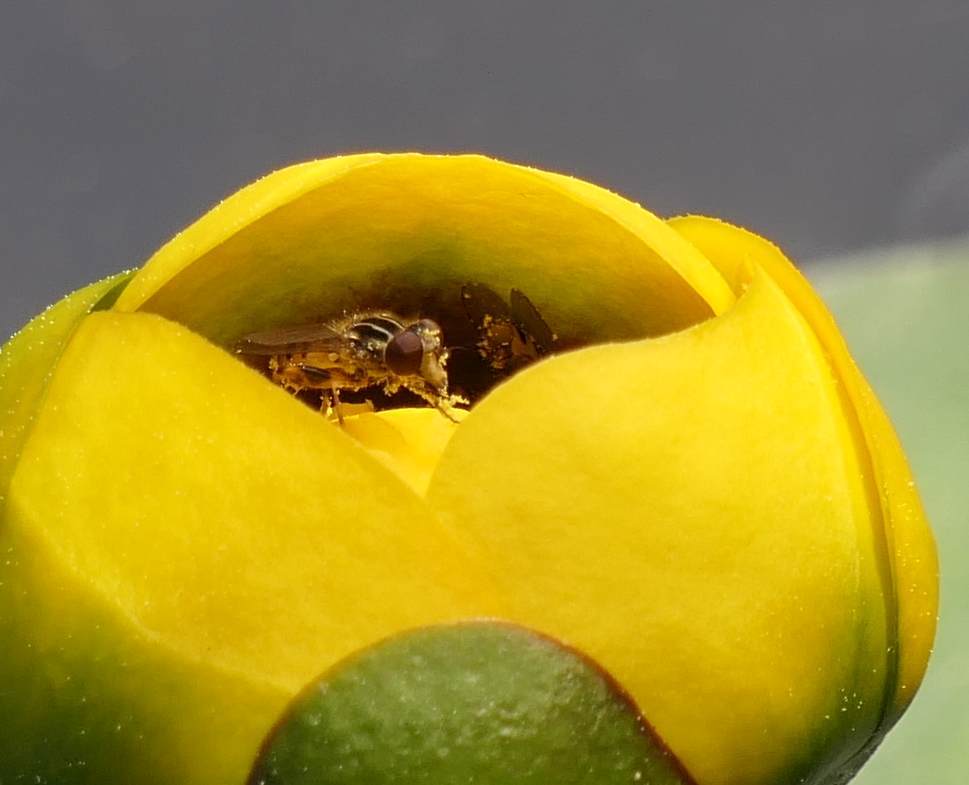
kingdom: Animalia
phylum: Arthropoda
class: Insecta
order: Diptera
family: Syrphidae
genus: Eurimyia
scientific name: Eurimyia stipatus
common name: Long-nosed swamp fly
